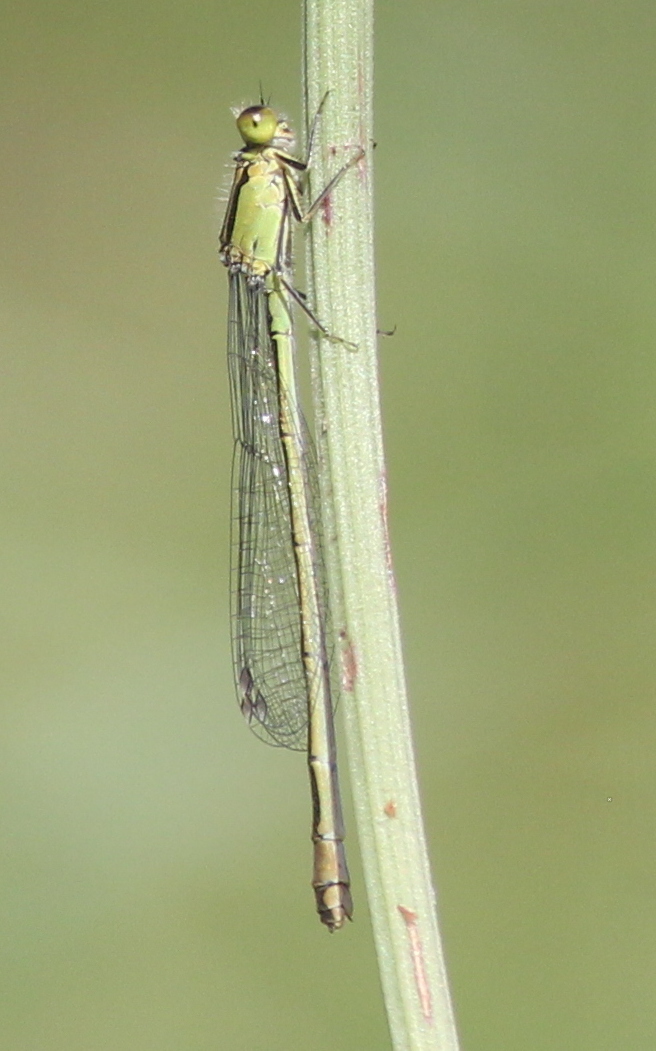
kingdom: Animalia
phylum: Arthropoda
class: Insecta
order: Odonata
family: Coenagrionidae
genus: Ischnura
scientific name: Ischnura elegans
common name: Blue-tailed damselfly
